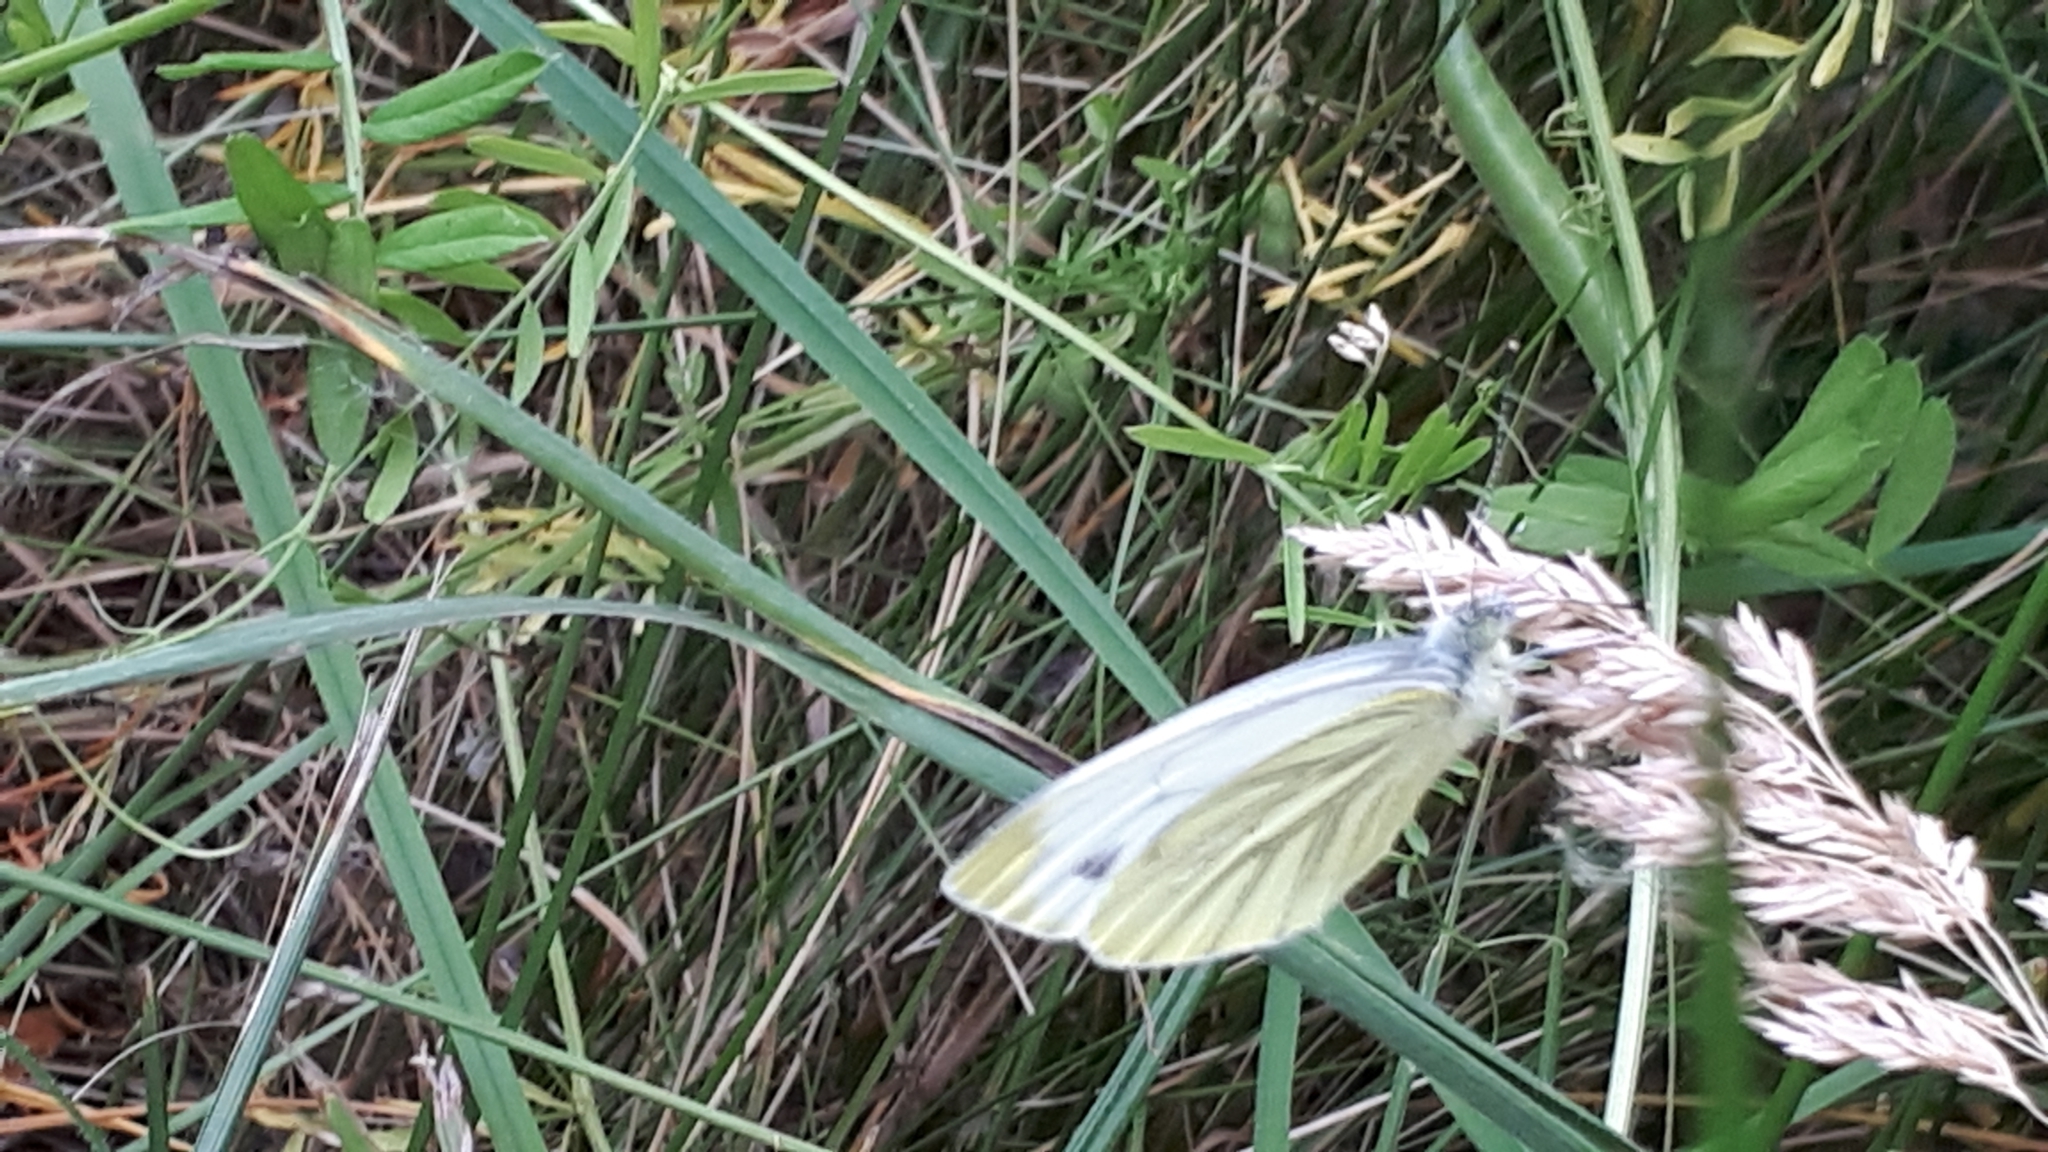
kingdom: Animalia
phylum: Arthropoda
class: Insecta
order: Lepidoptera
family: Pieridae
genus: Pieris
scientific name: Pieris napi
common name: Green-veined white
